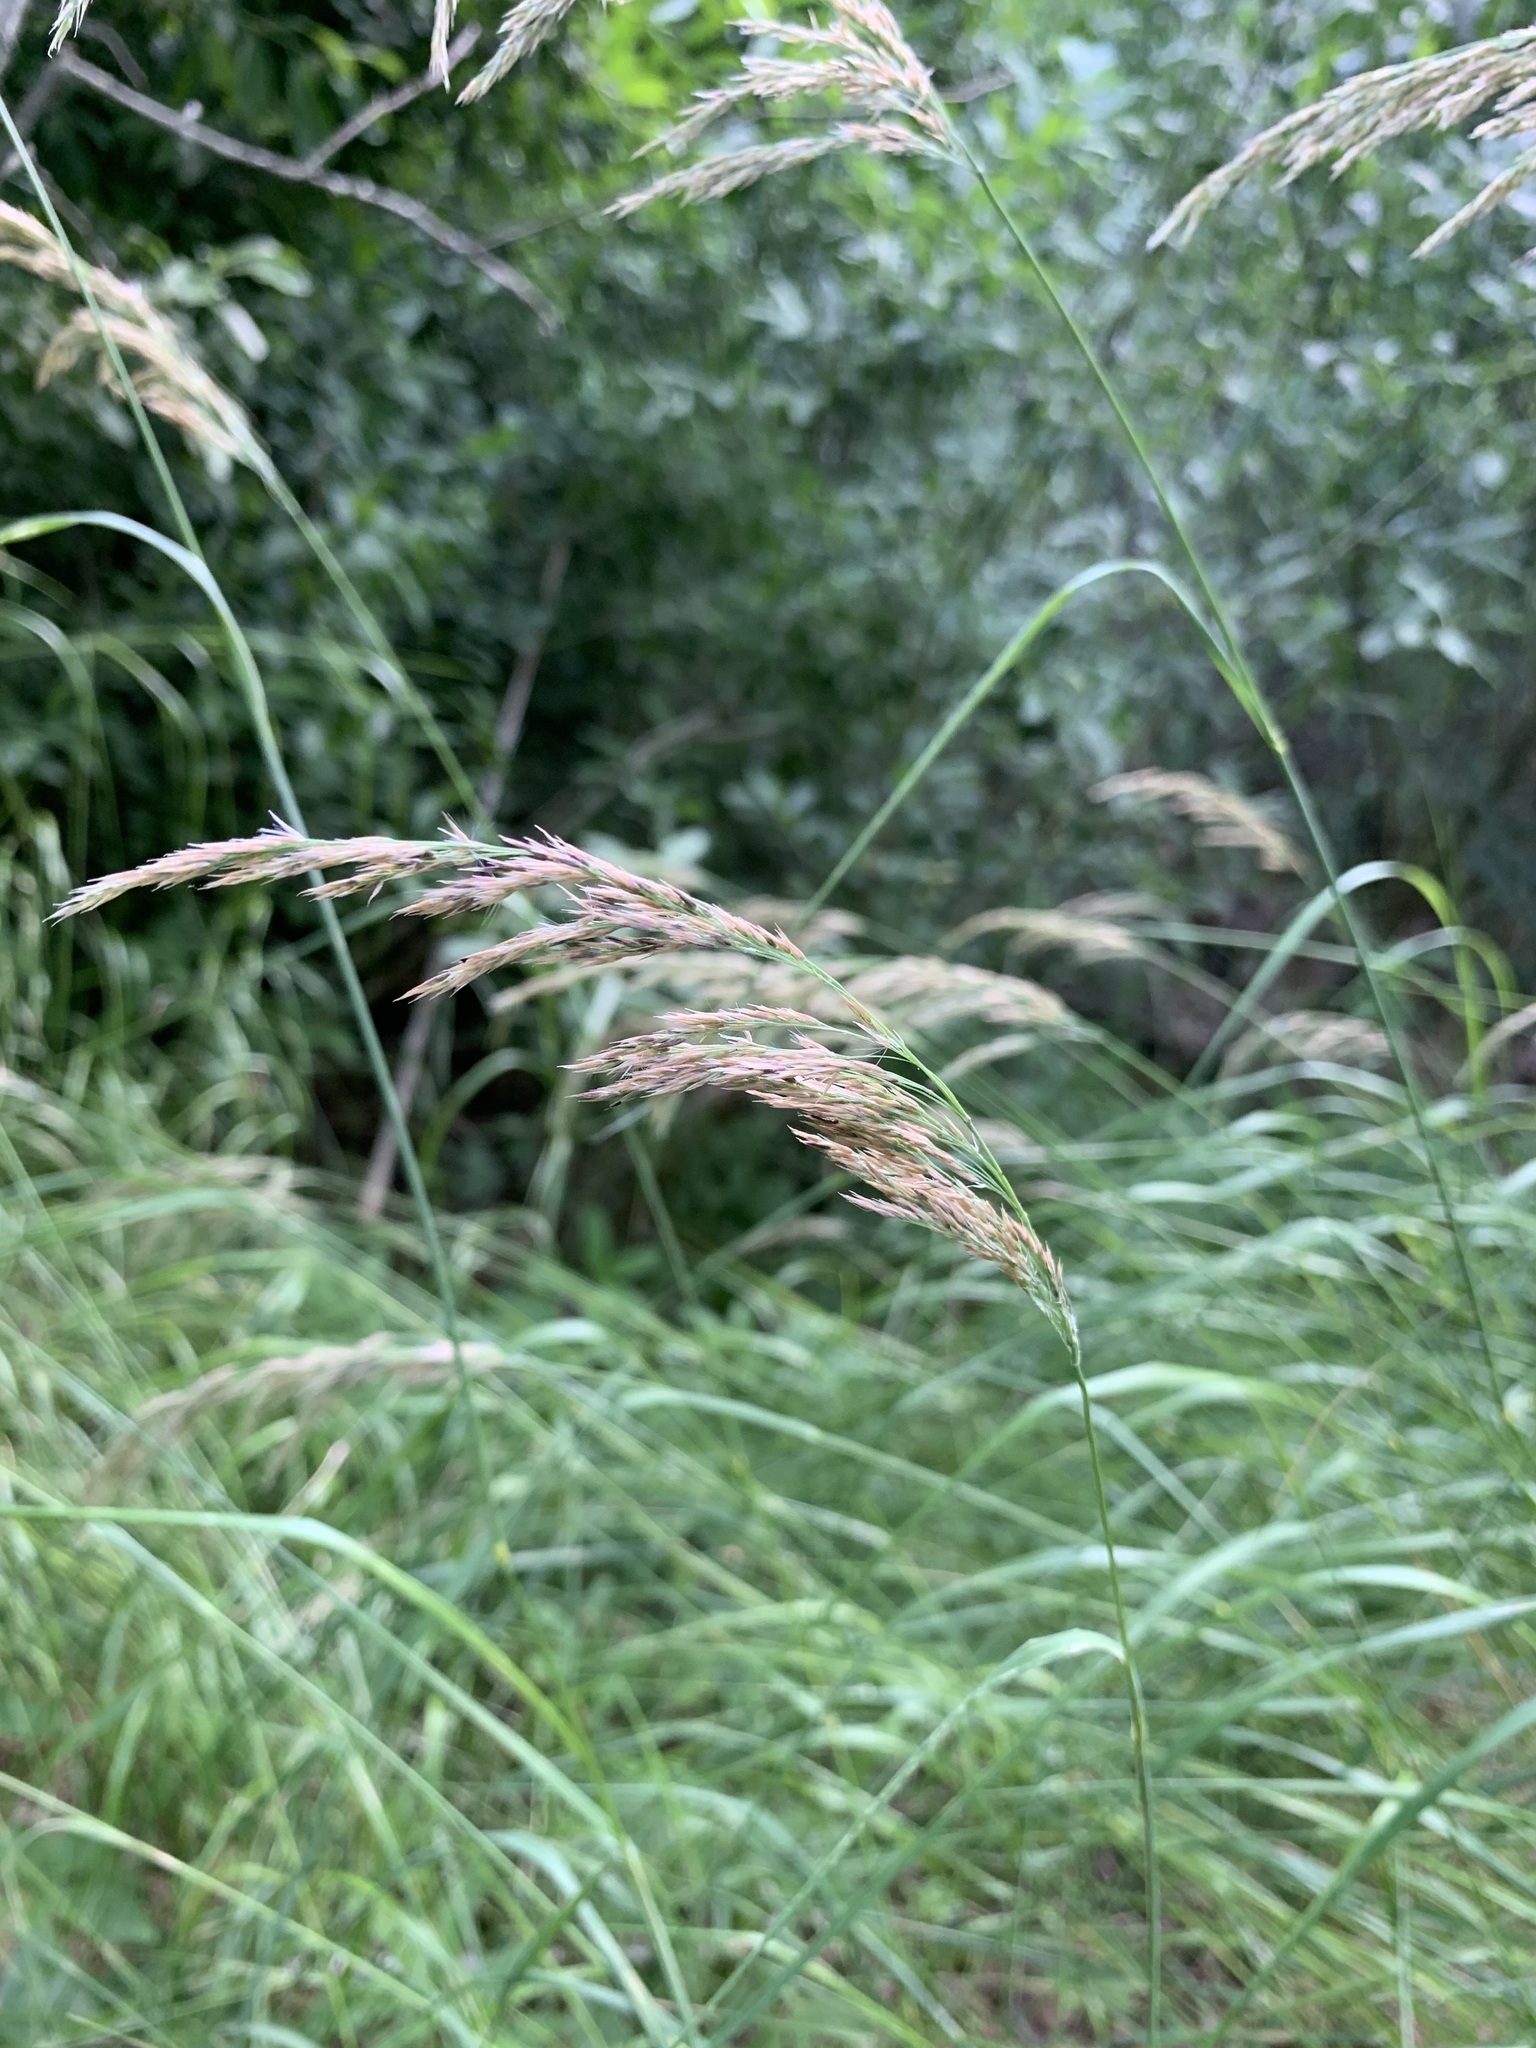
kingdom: Plantae
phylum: Tracheophyta
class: Liliopsida
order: Poales
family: Poaceae
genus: Calamagrostis
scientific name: Calamagrostis purpurea
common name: Scandinavian small-reed
